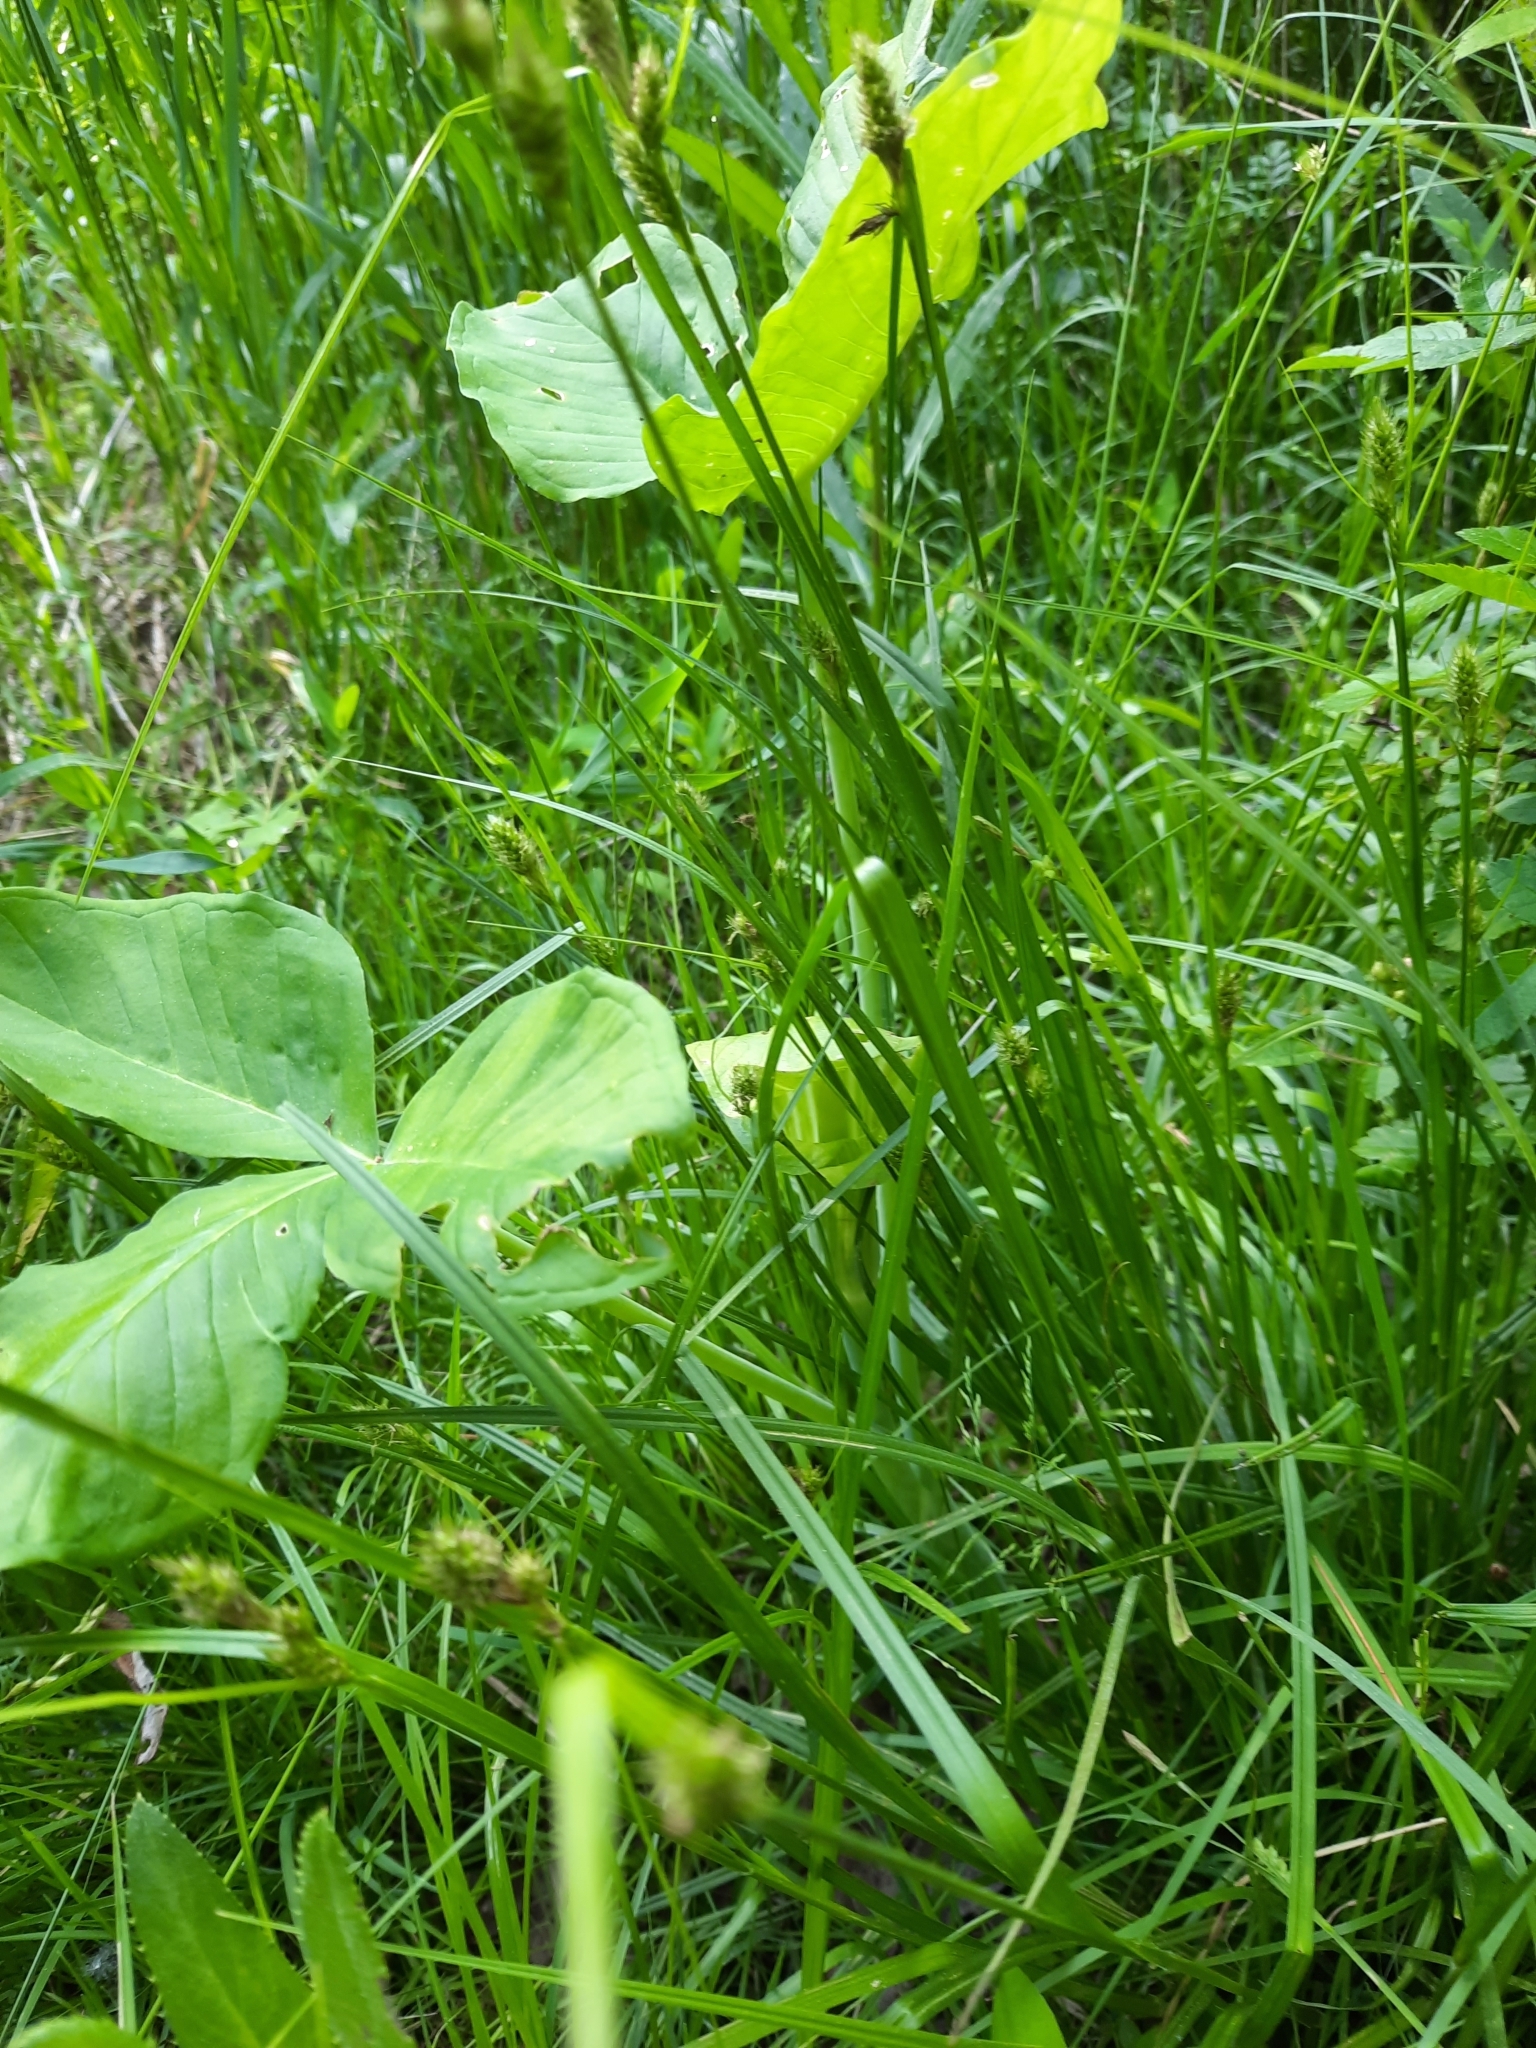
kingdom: Plantae
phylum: Tracheophyta
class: Liliopsida
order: Alismatales
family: Araceae
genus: Arisaema
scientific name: Arisaema triphyllum
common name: Jack-in-the-pulpit
